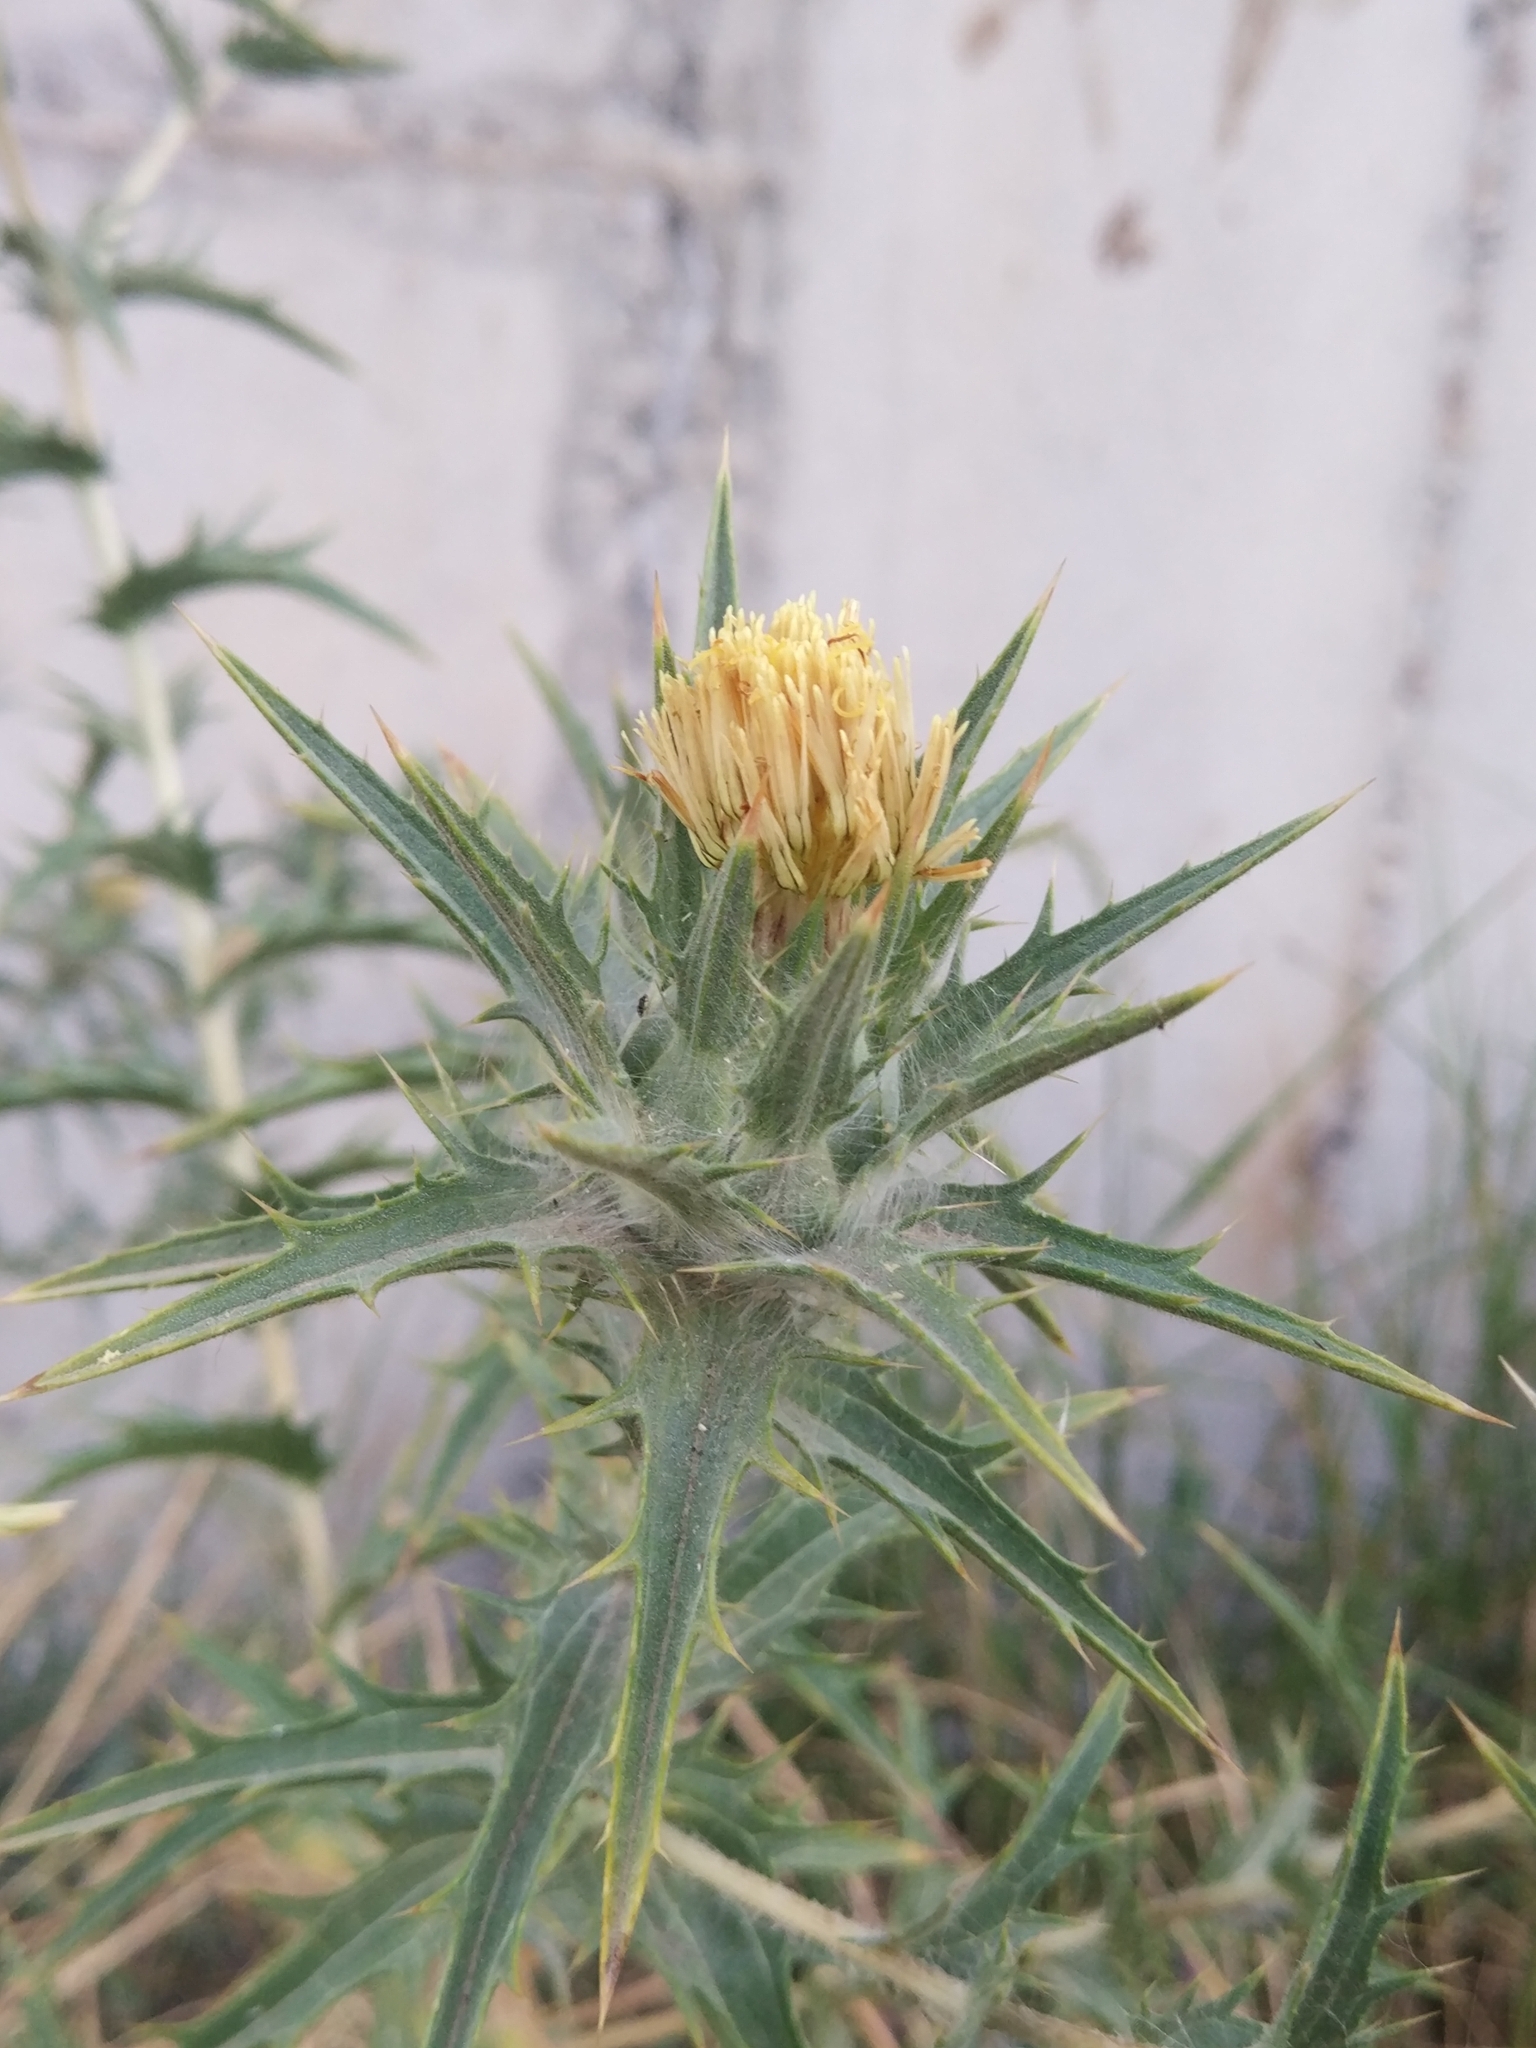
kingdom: Plantae
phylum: Tracheophyta
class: Magnoliopsida
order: Asterales
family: Asteraceae
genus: Carthamus
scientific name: Carthamus lanatus
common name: Downy safflower
